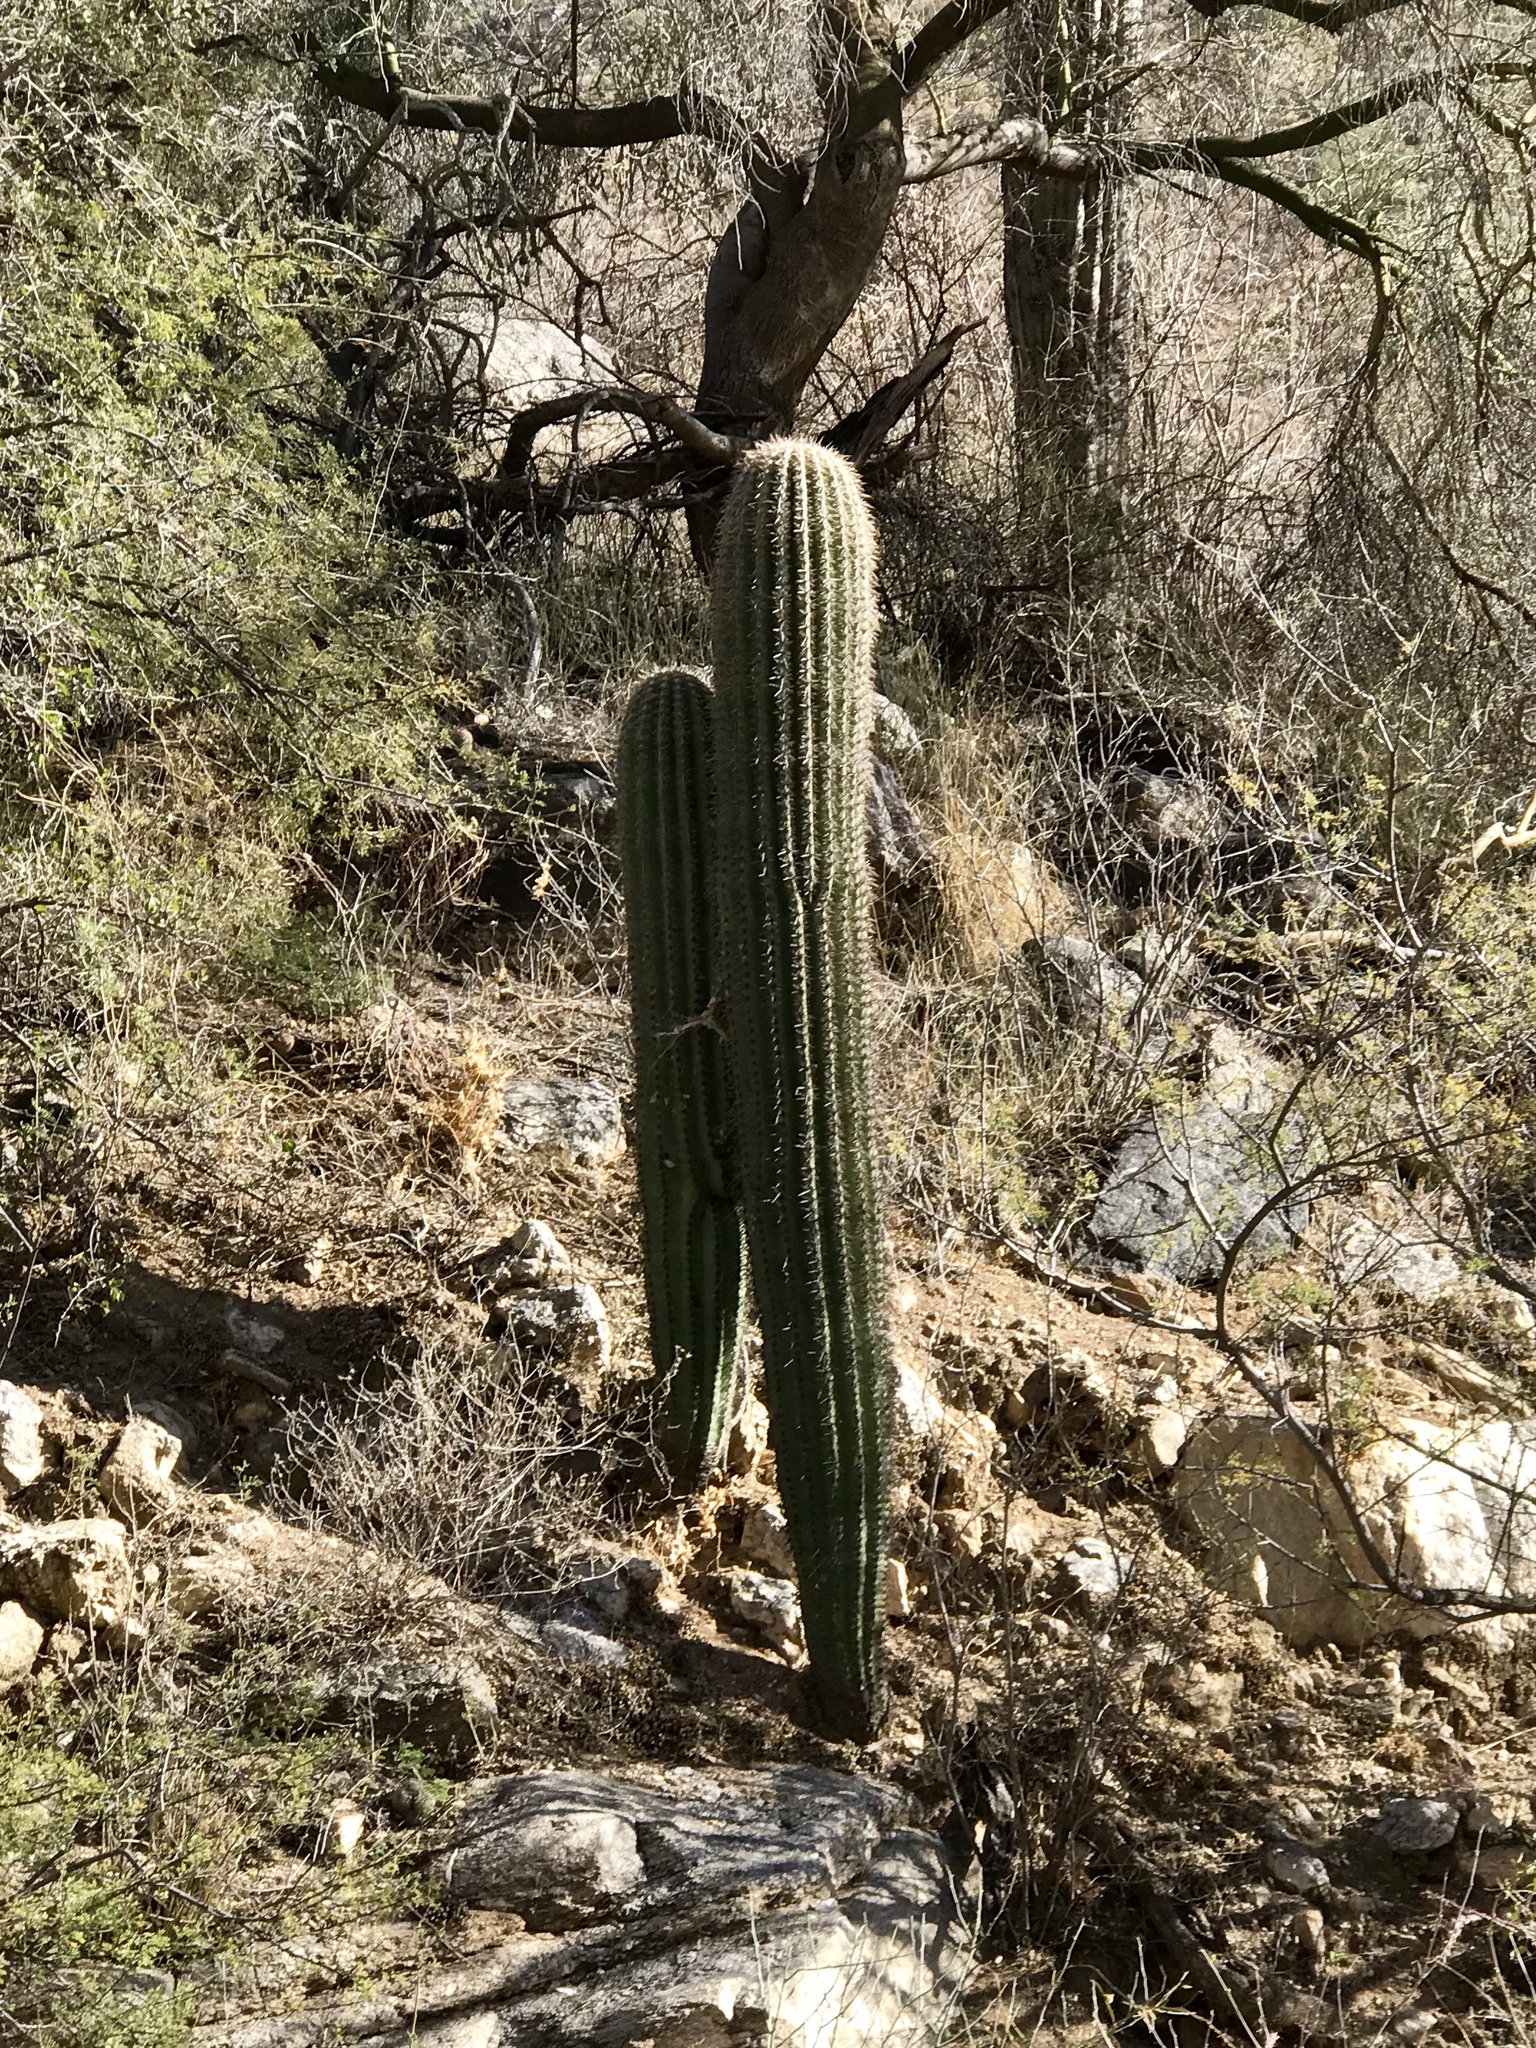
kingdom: Plantae
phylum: Tracheophyta
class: Magnoliopsida
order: Caryophyllales
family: Cactaceae
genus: Carnegiea
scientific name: Carnegiea gigantea
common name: Saguaro
